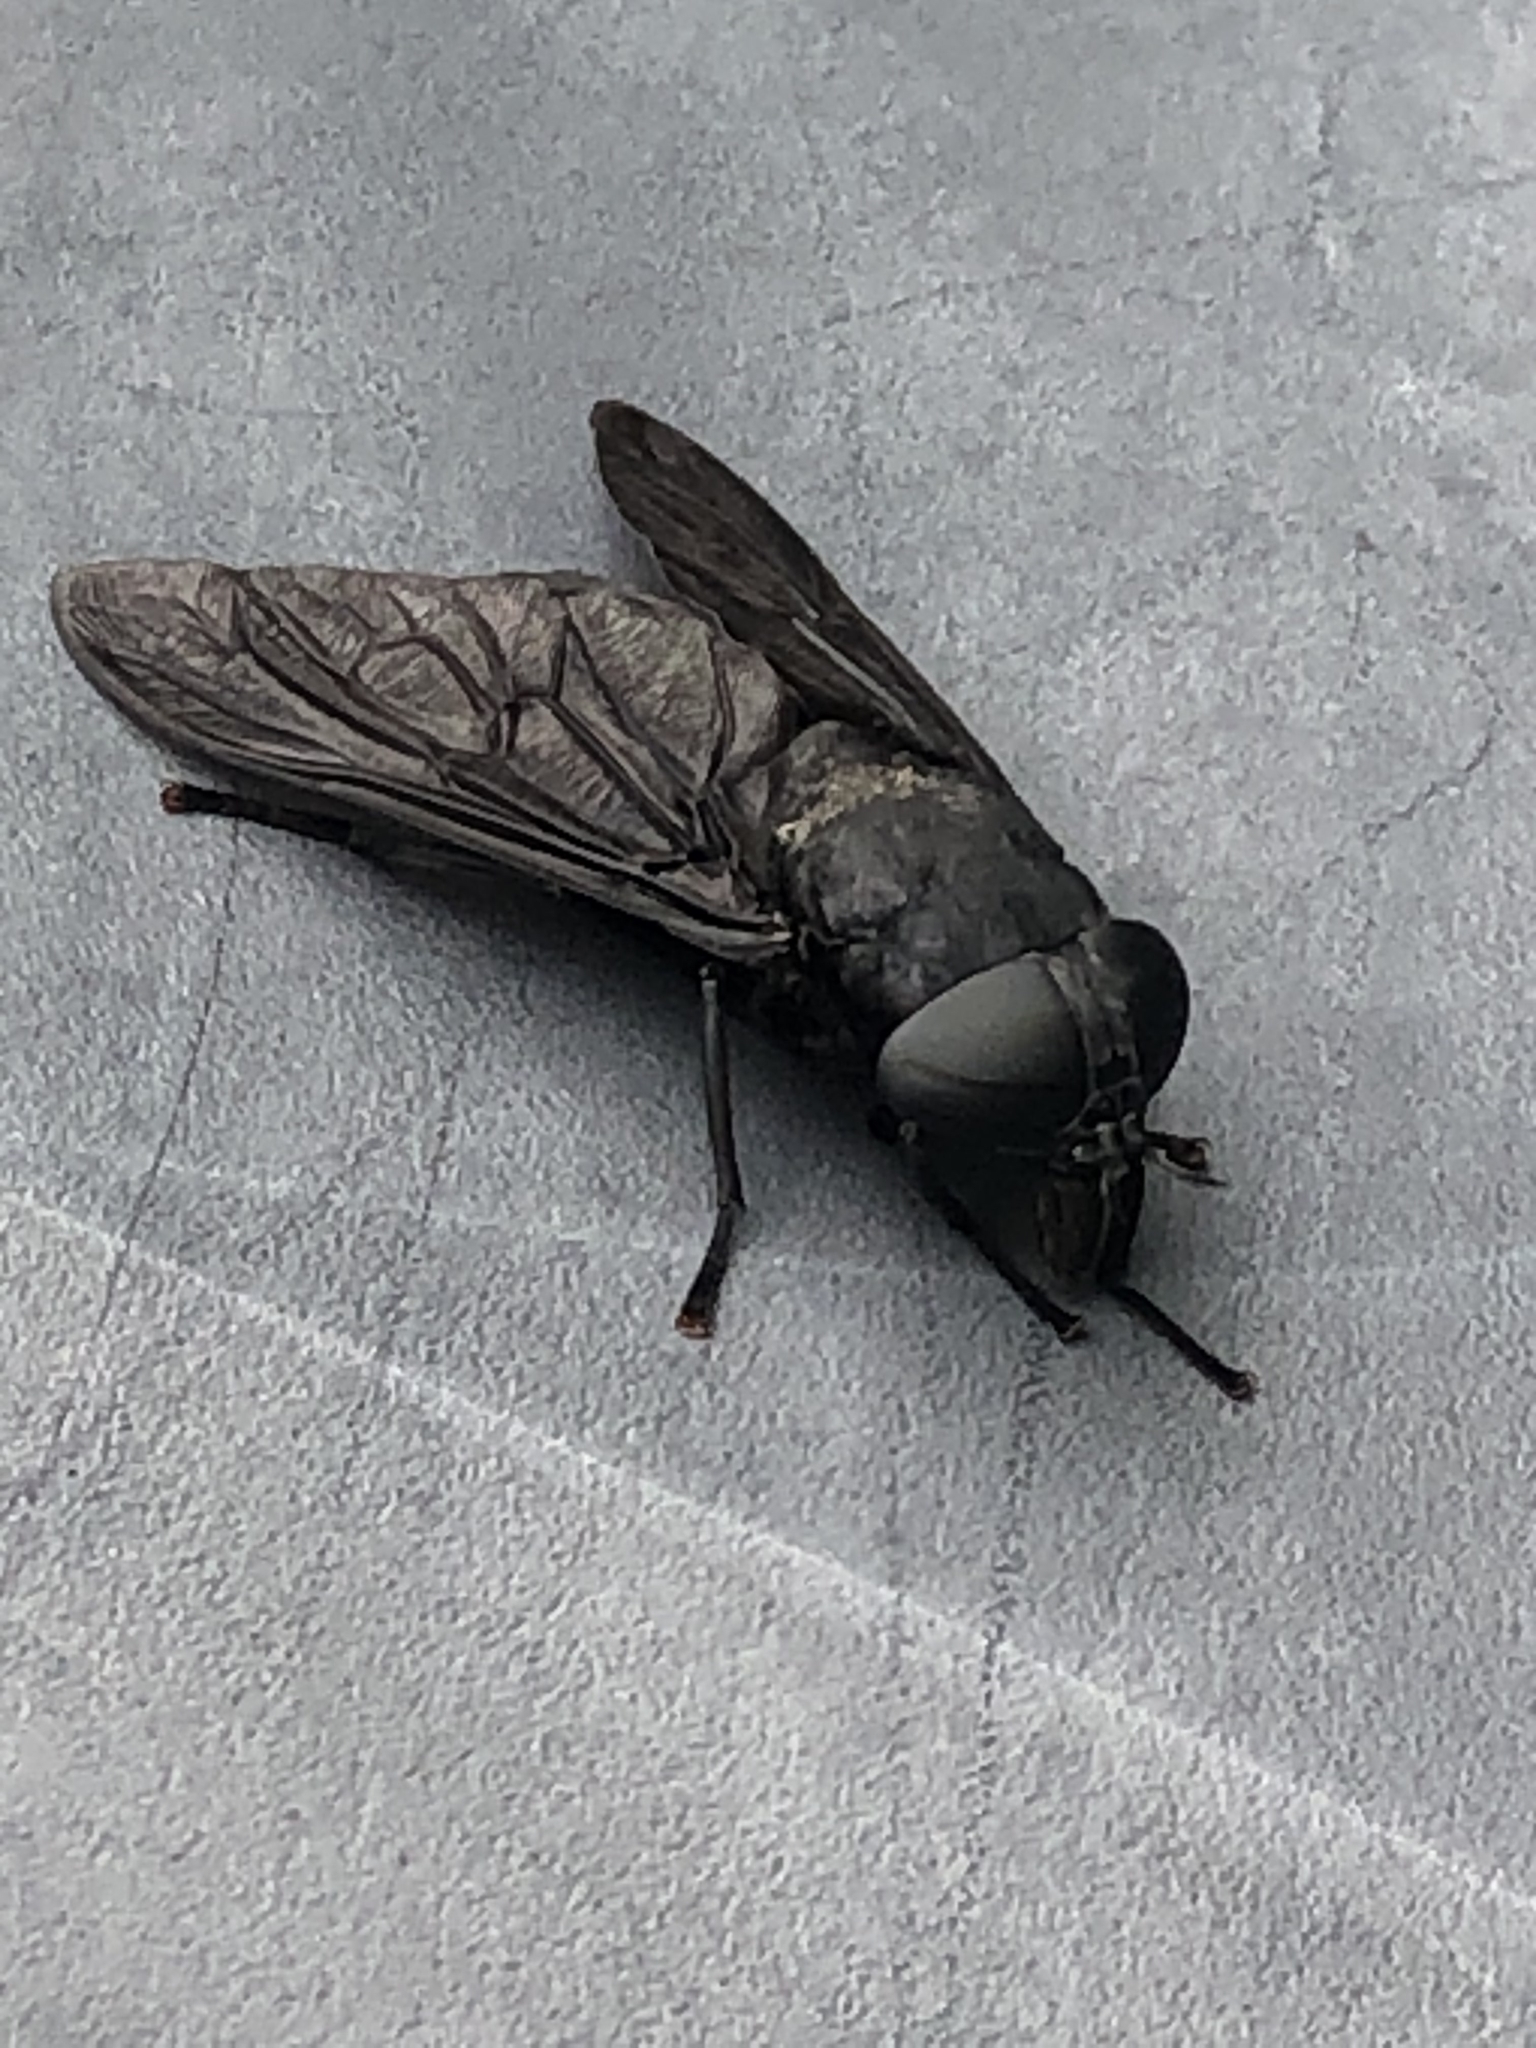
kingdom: Animalia
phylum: Arthropoda
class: Insecta
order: Diptera
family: Tabanidae
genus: Tabanus
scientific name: Tabanus atratus
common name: Black horse fly
